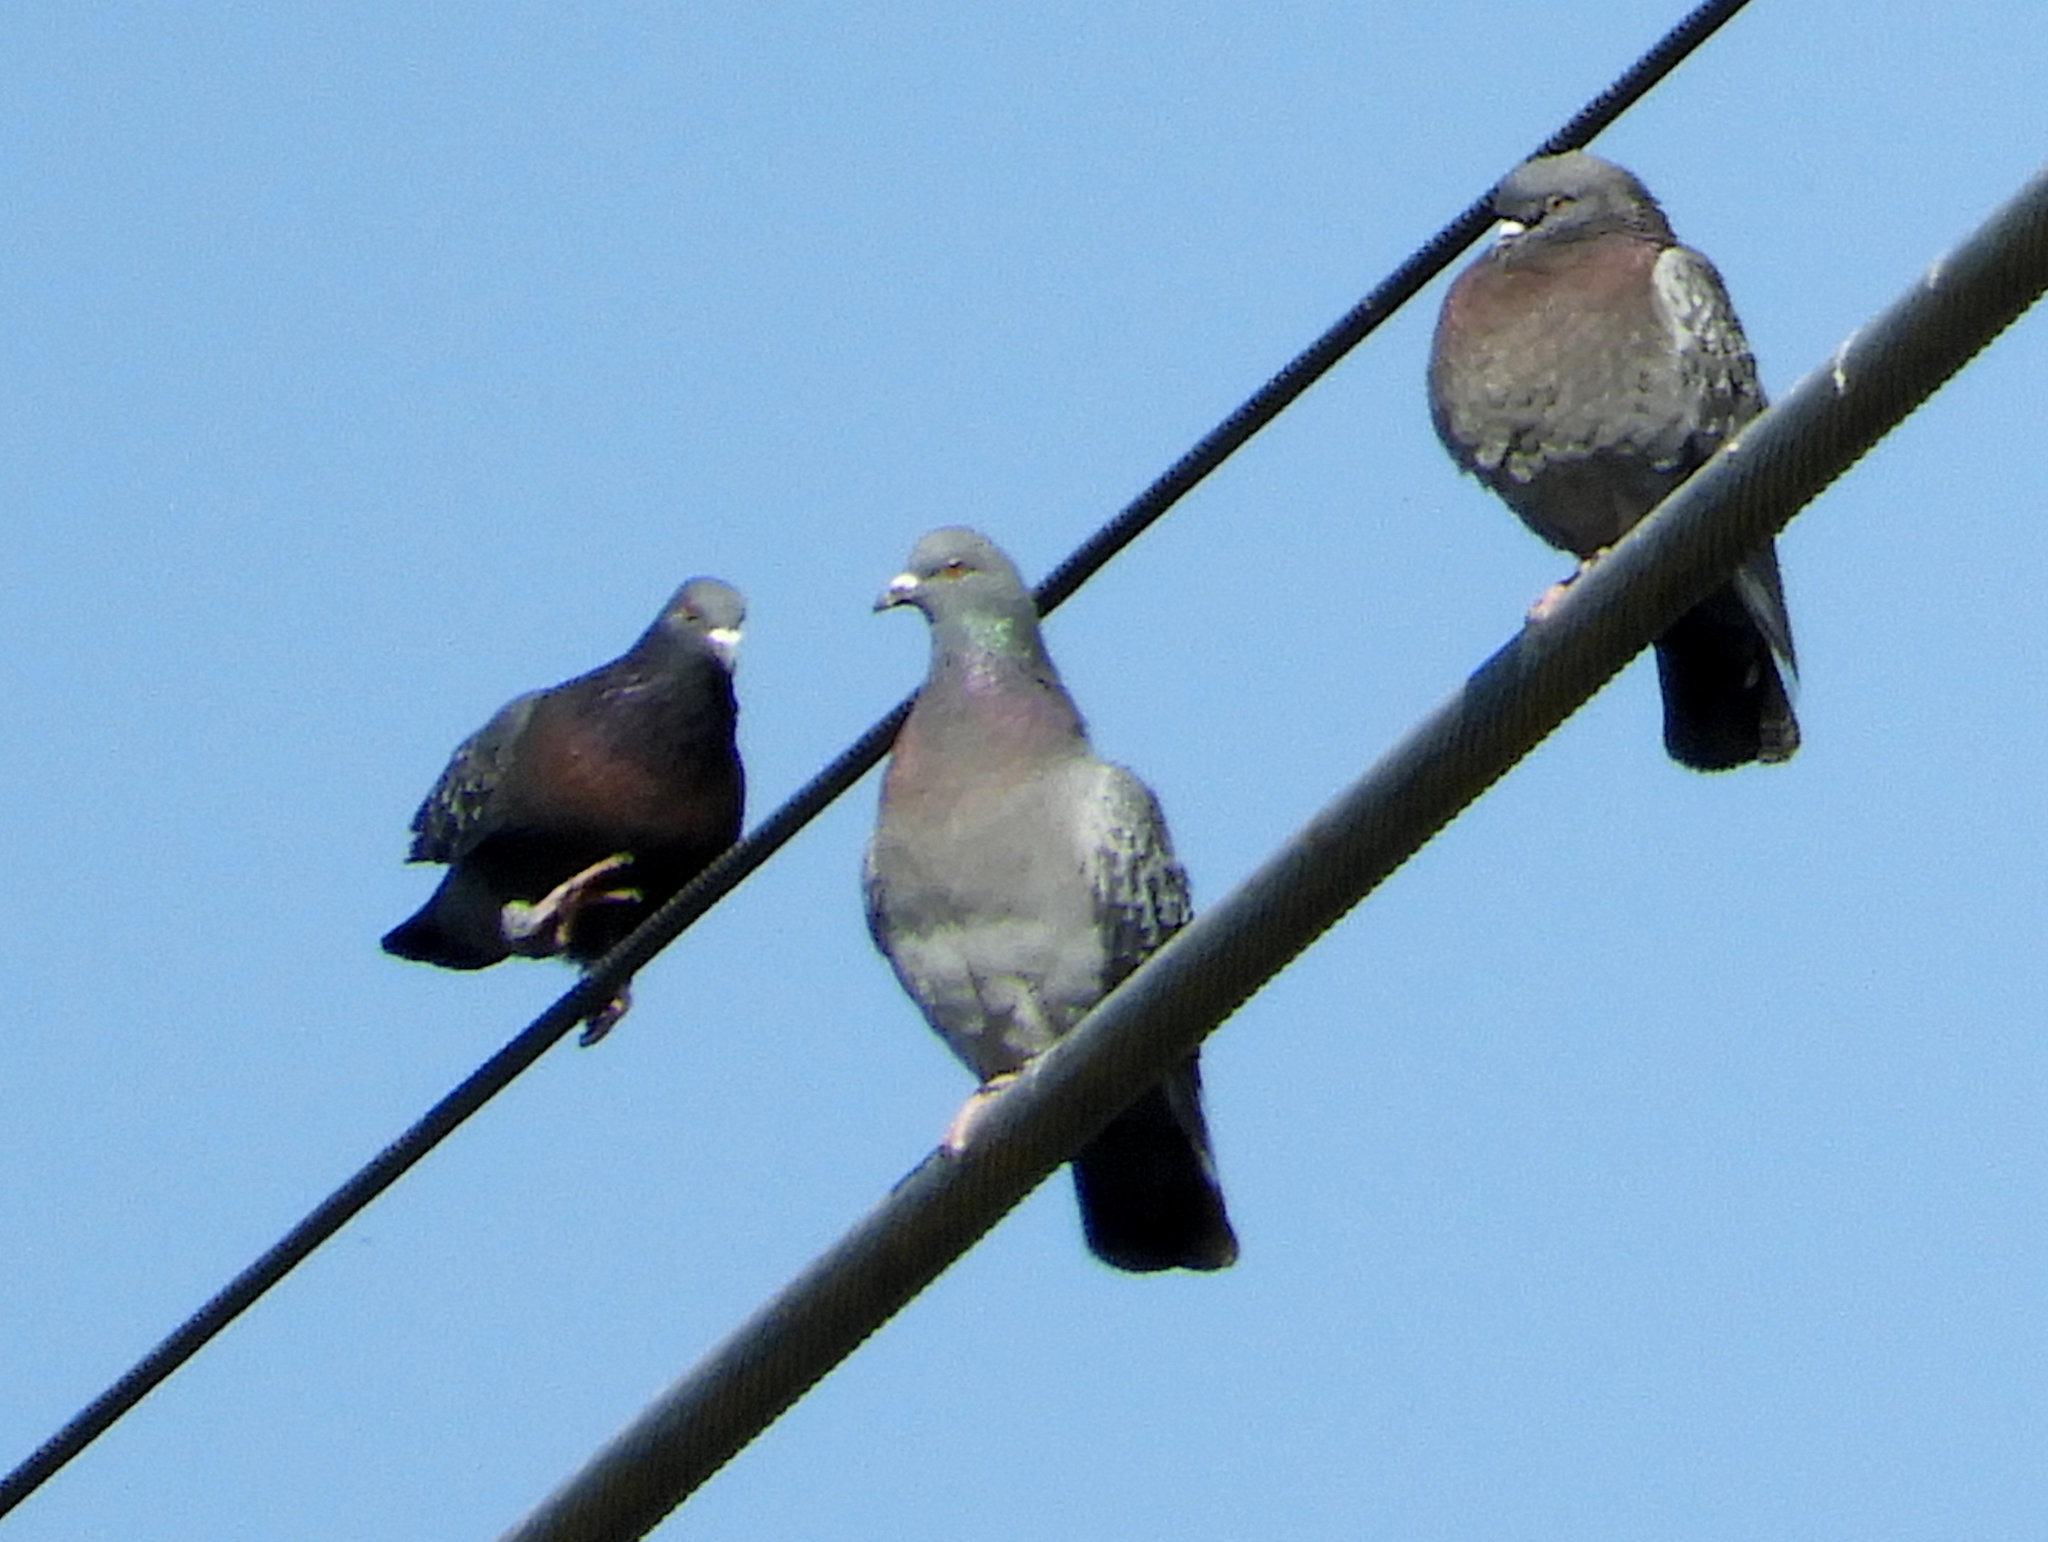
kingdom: Animalia
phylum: Chordata
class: Aves
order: Columbiformes
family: Columbidae
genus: Columba
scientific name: Columba livia
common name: Rock pigeon
